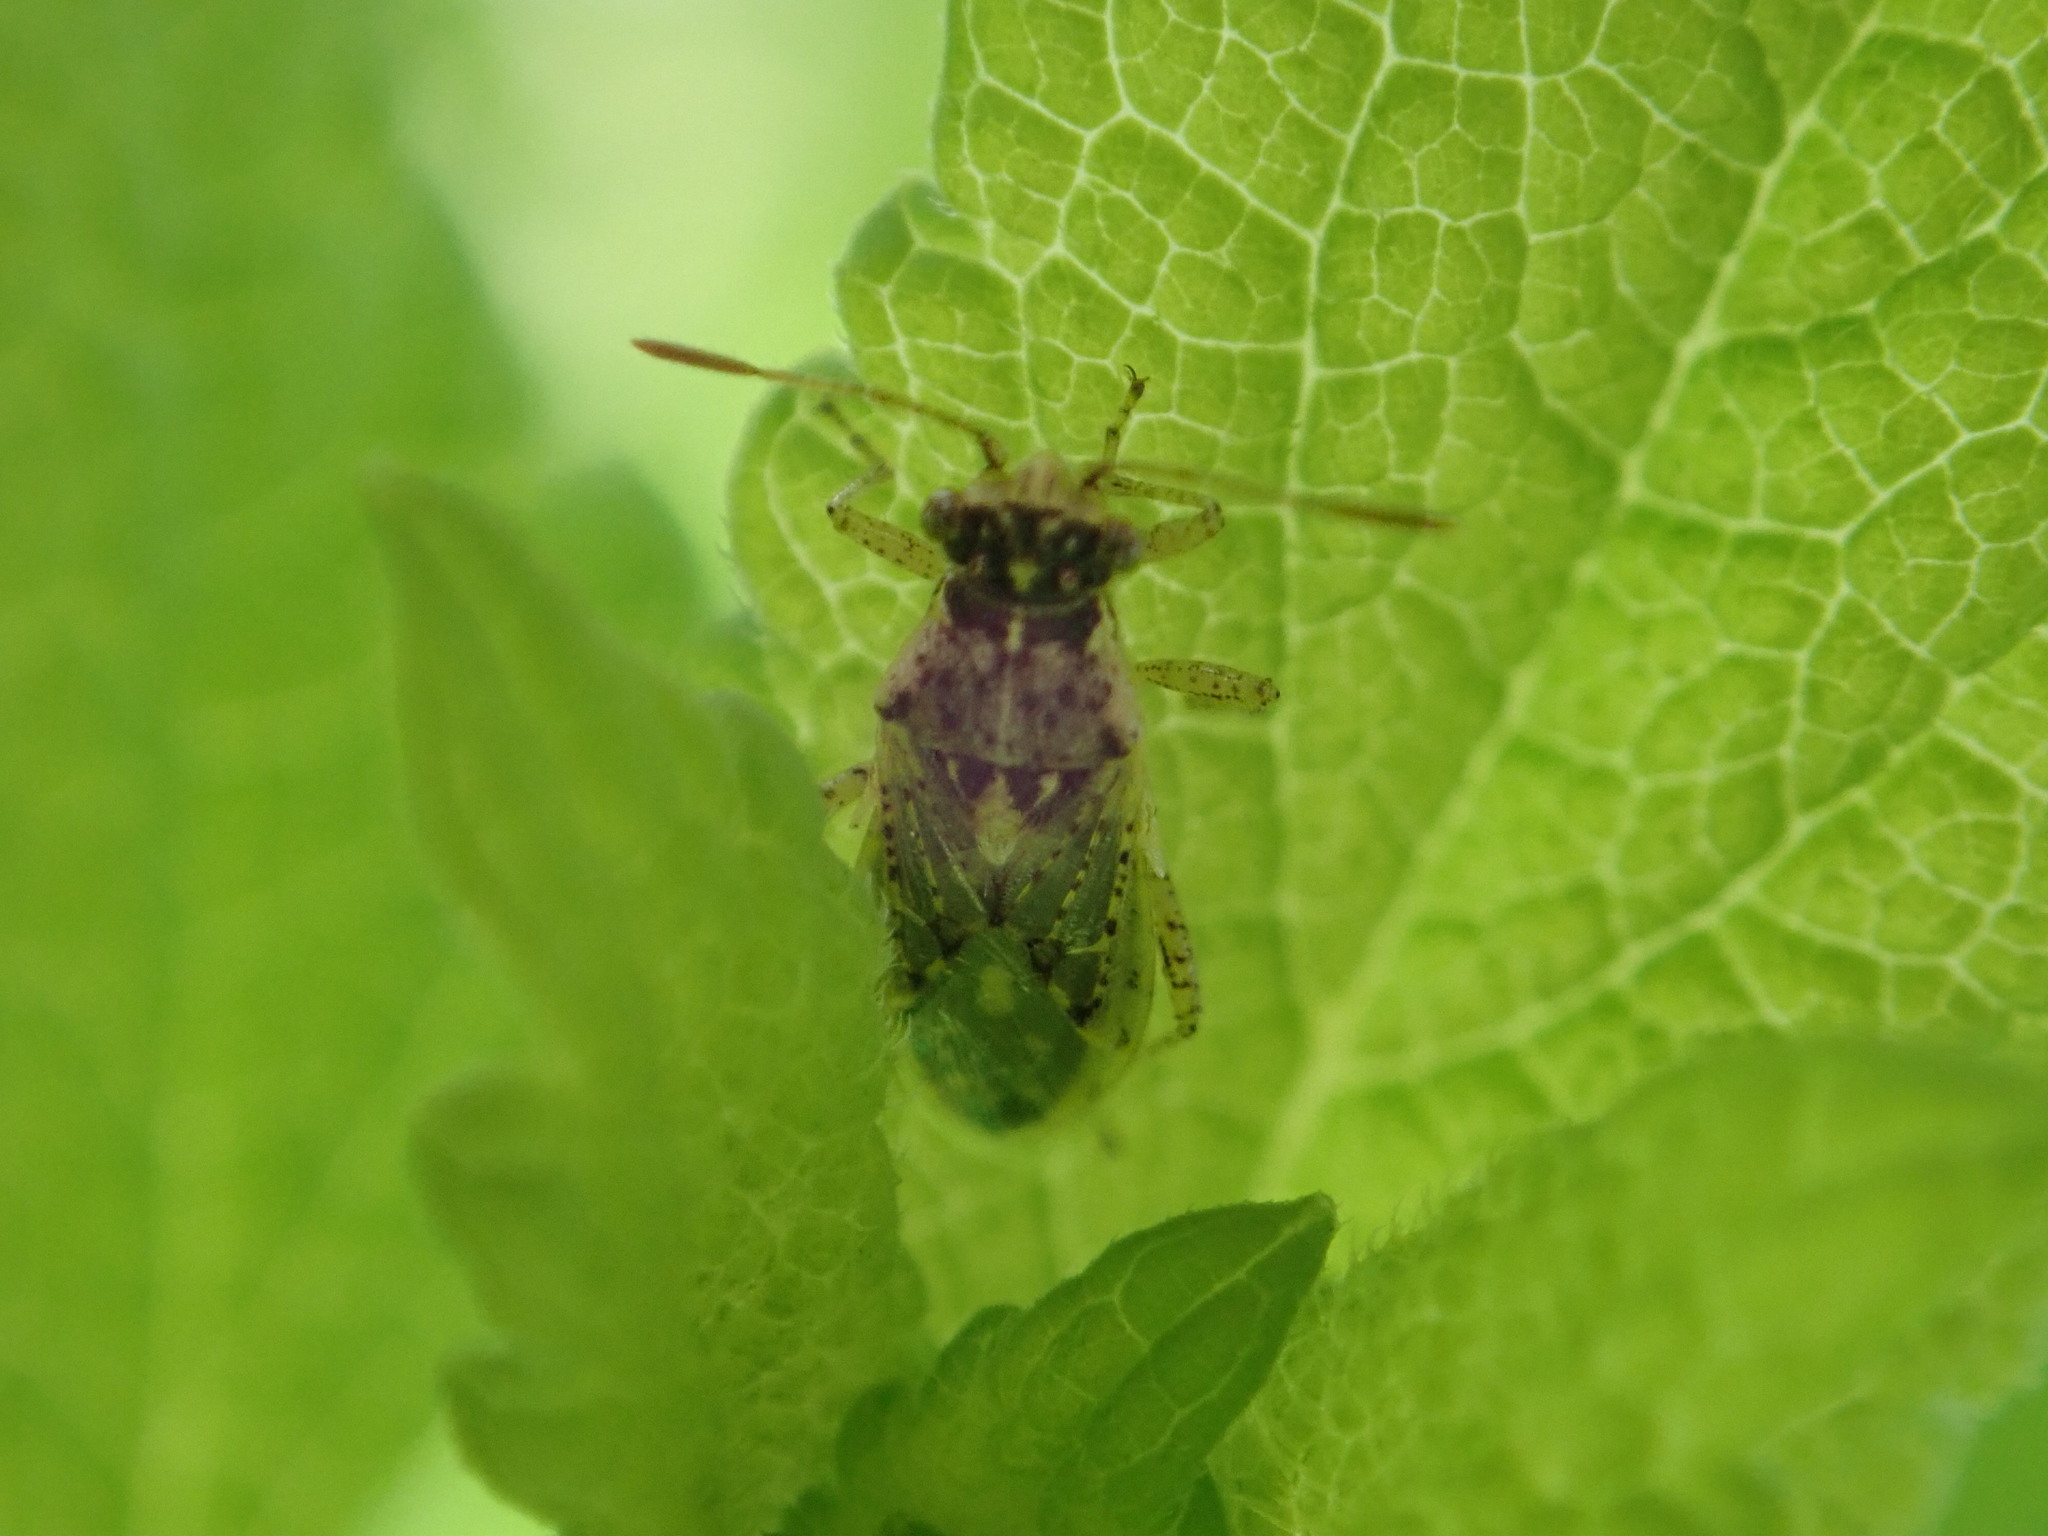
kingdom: Animalia
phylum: Arthropoda
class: Insecta
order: Hemiptera
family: Rhopalidae
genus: Brachycarenus
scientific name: Brachycarenus tigrinus
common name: Scentless plant bug
